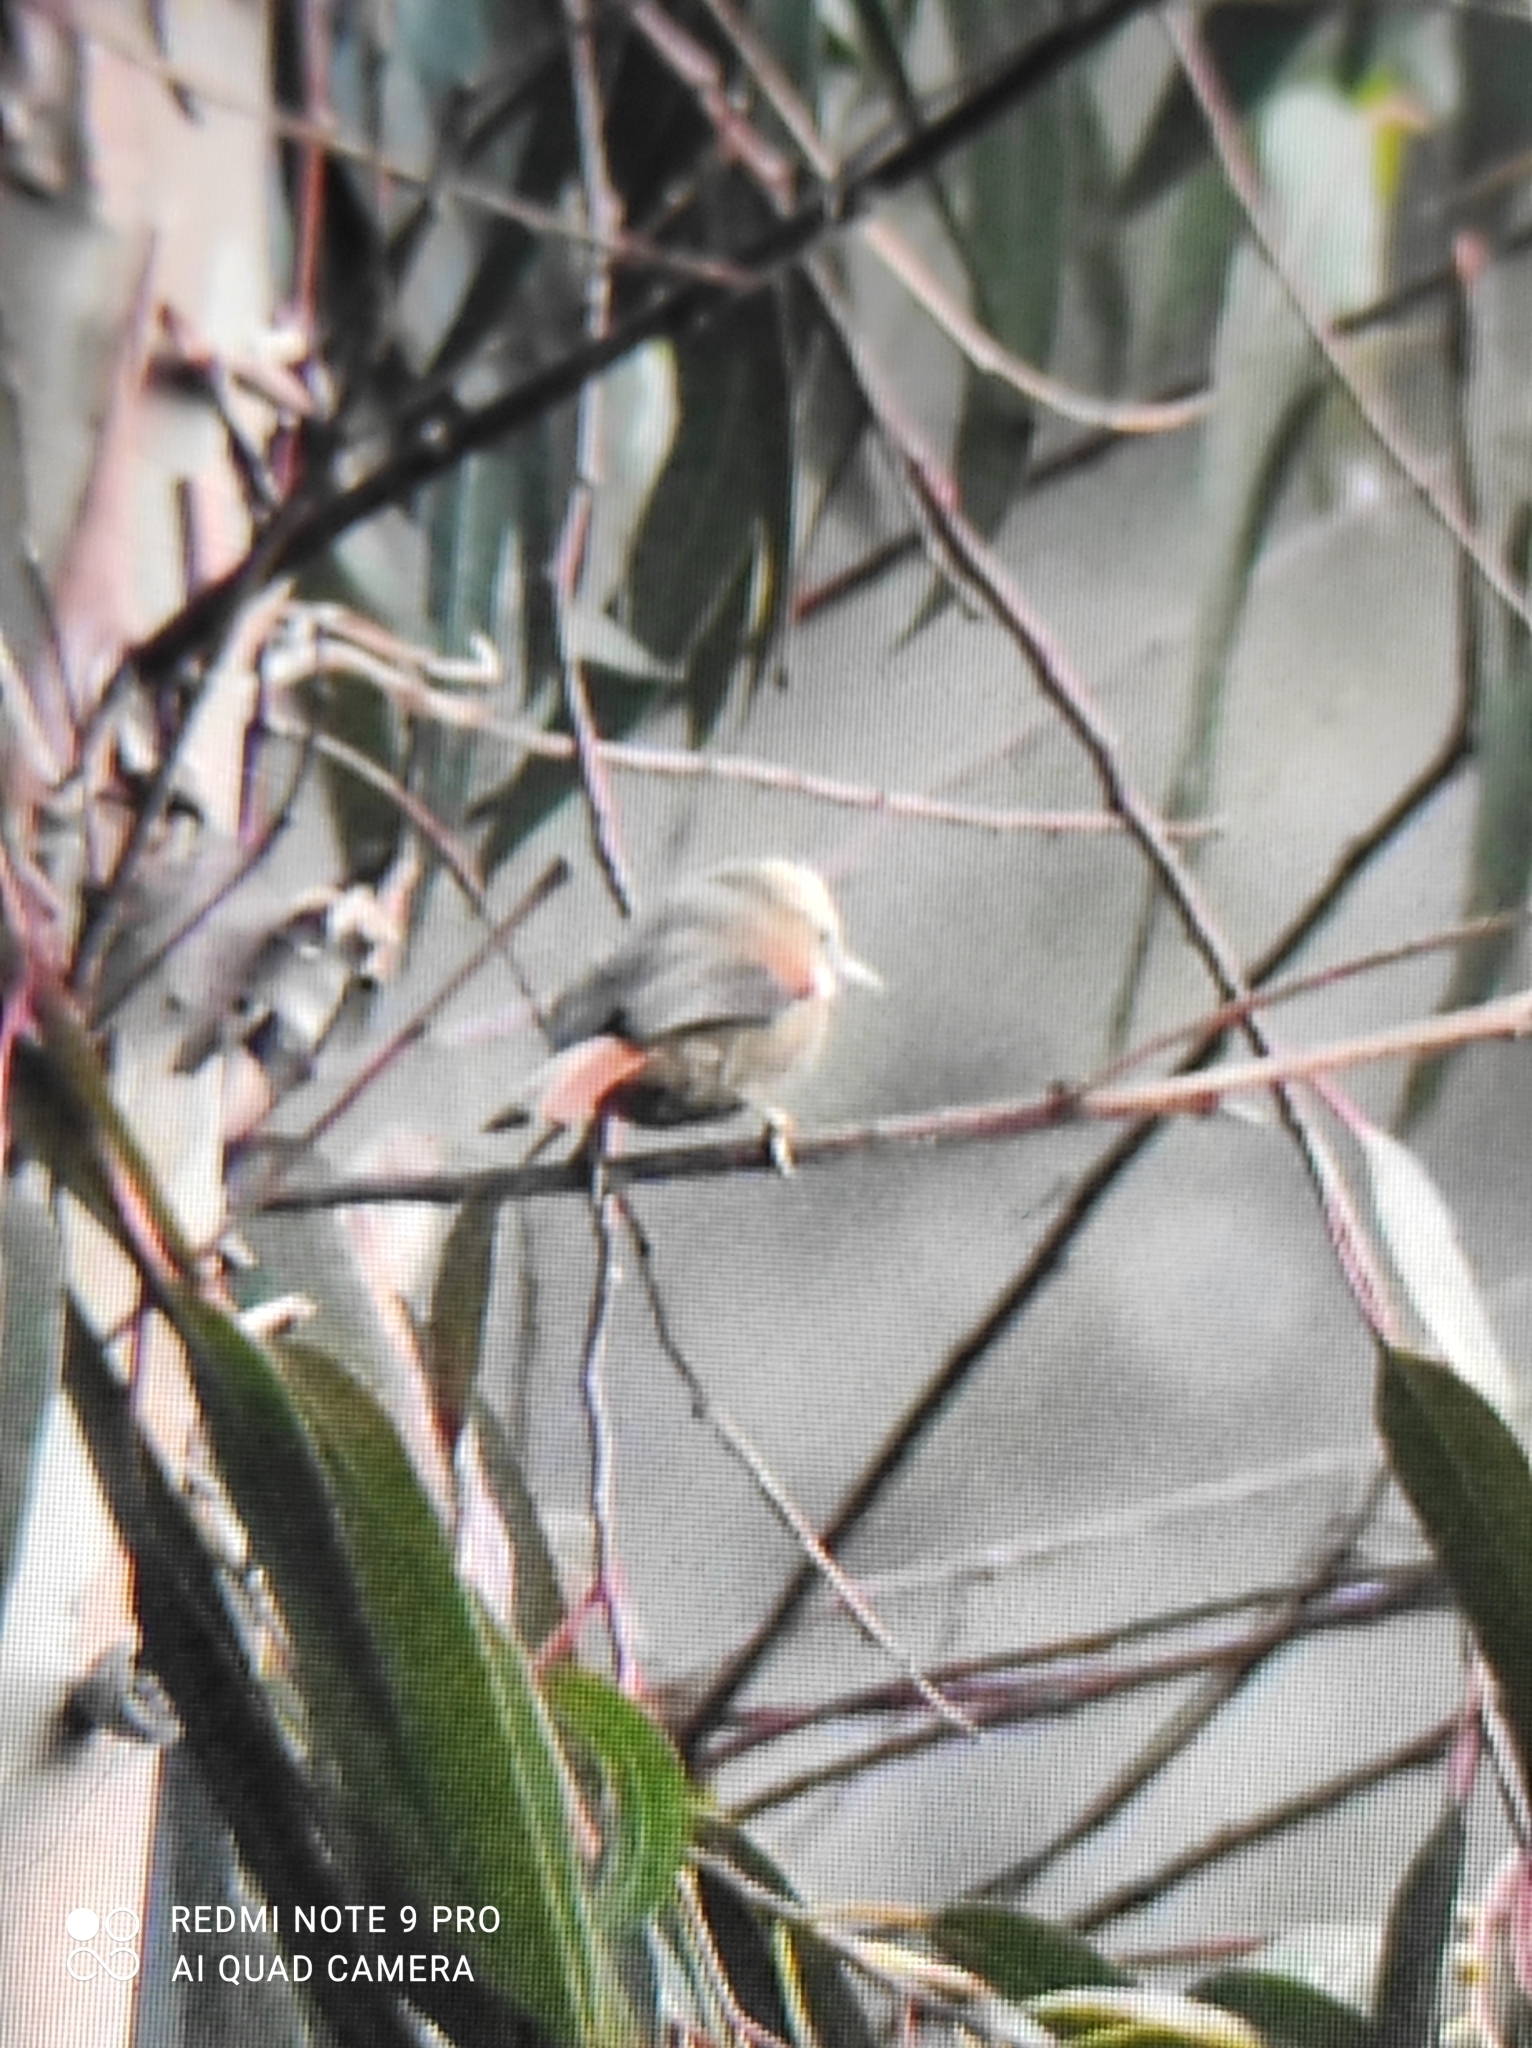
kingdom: Animalia
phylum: Chordata
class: Aves
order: Passeriformes
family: Furnariidae
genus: Cranioleuca
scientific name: Cranioleuca albicapilla
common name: Creamy-crested spinetail
